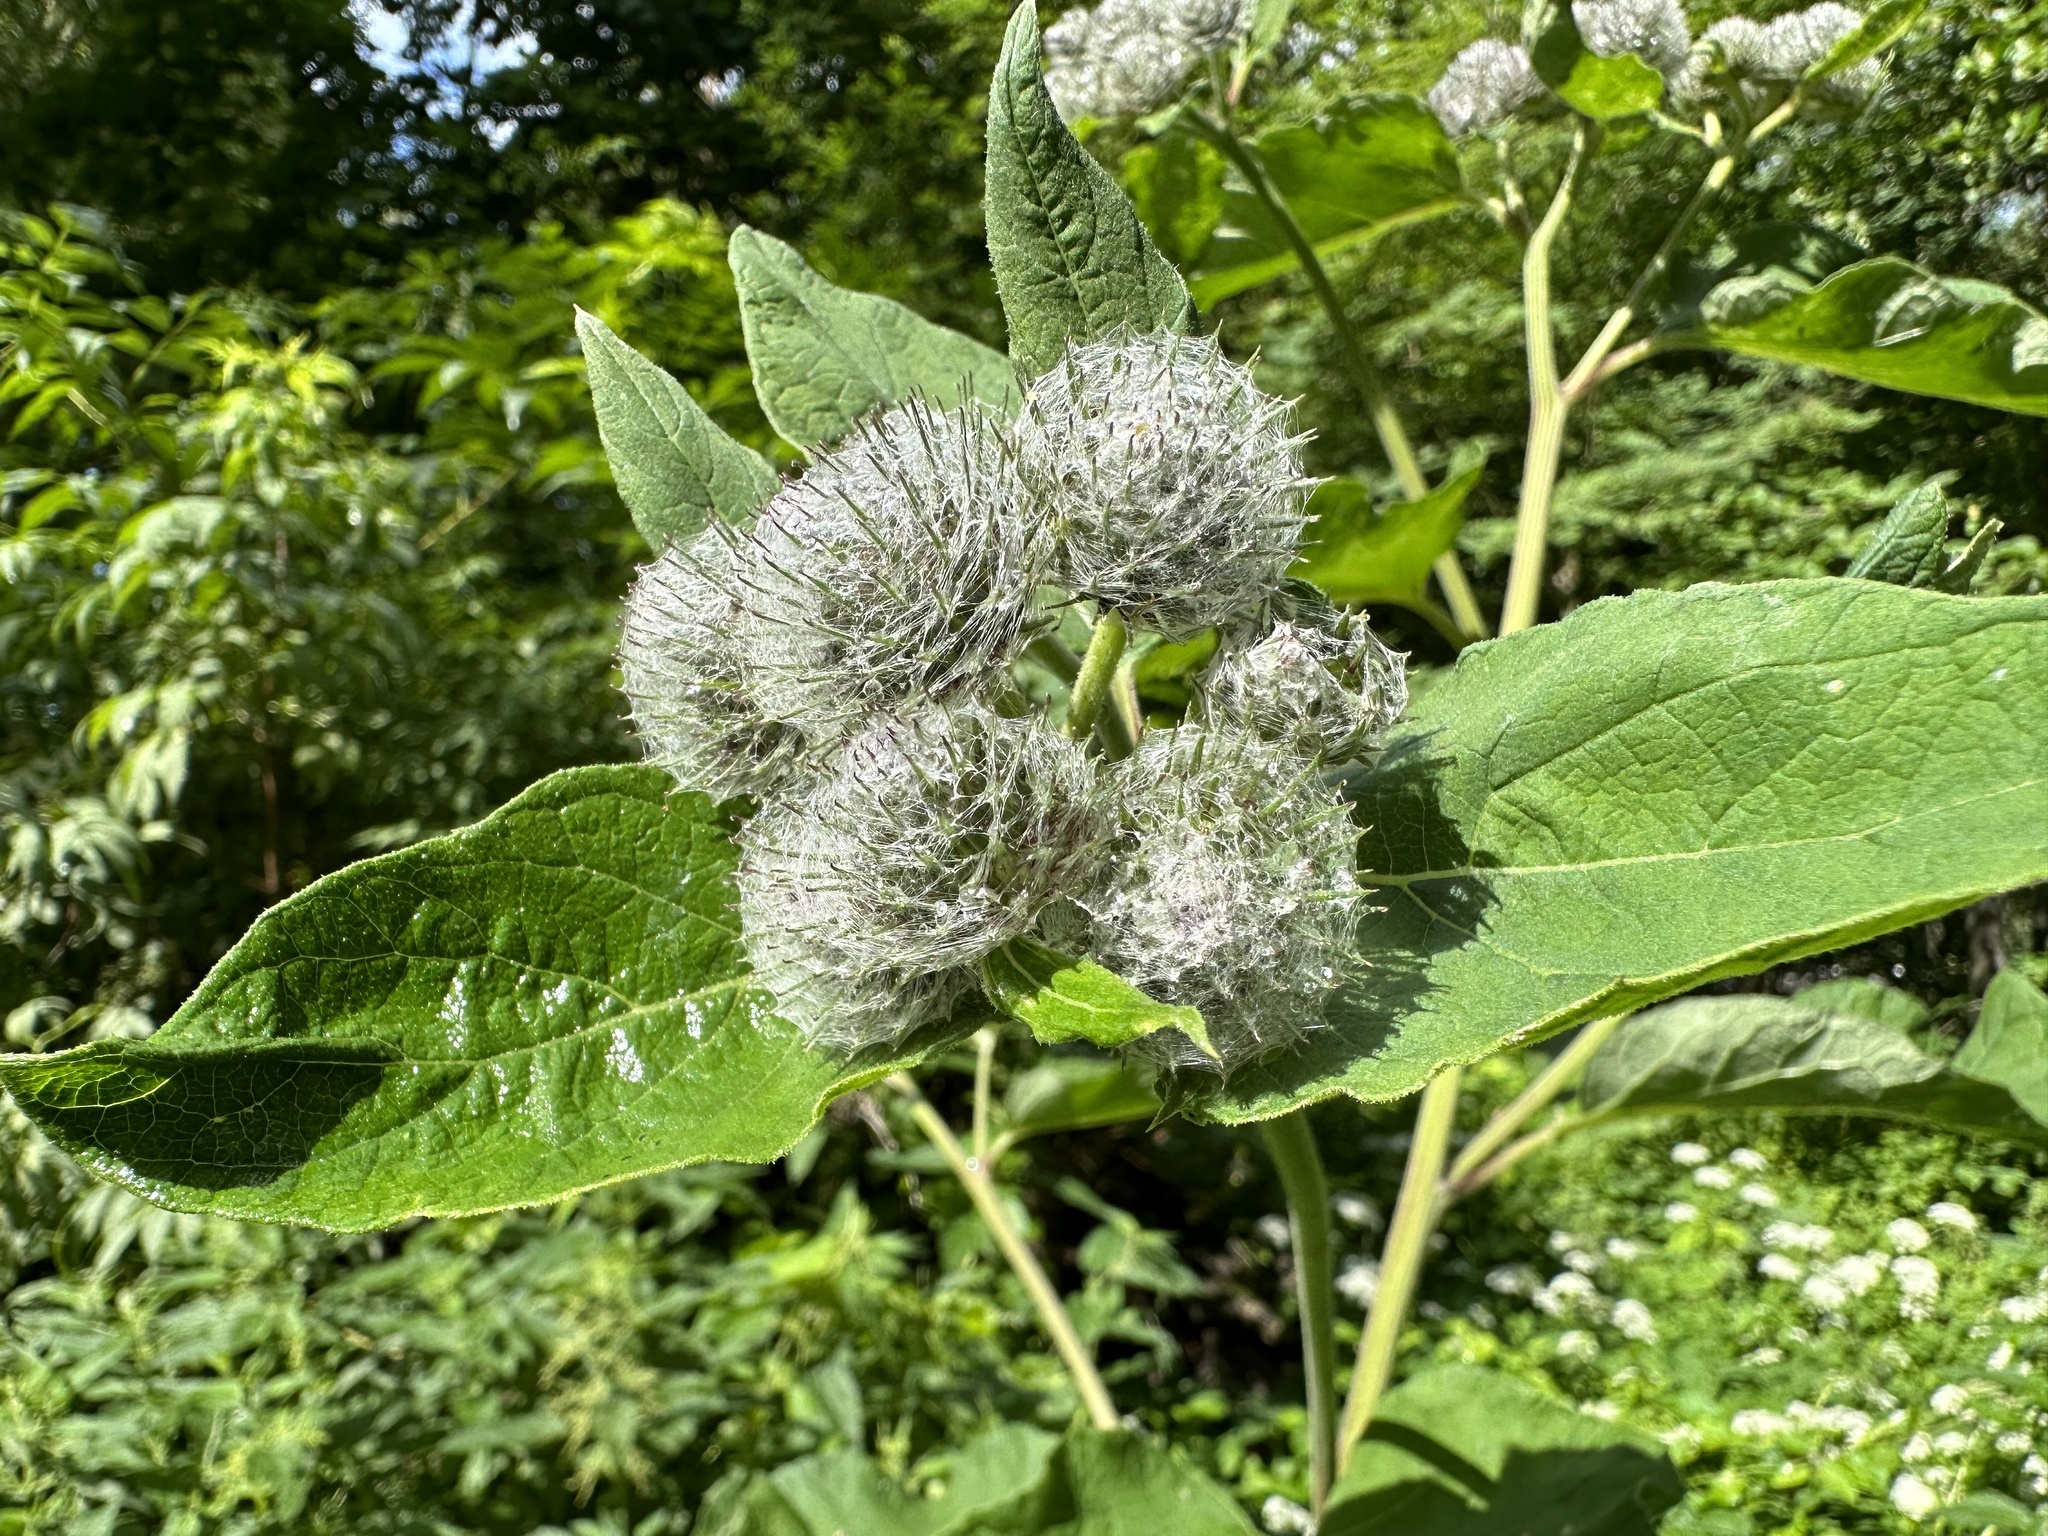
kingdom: Plantae
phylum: Tracheophyta
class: Magnoliopsida
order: Asterales
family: Asteraceae
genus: Arctium
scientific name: Arctium tomentosum
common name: Woolly burdock
